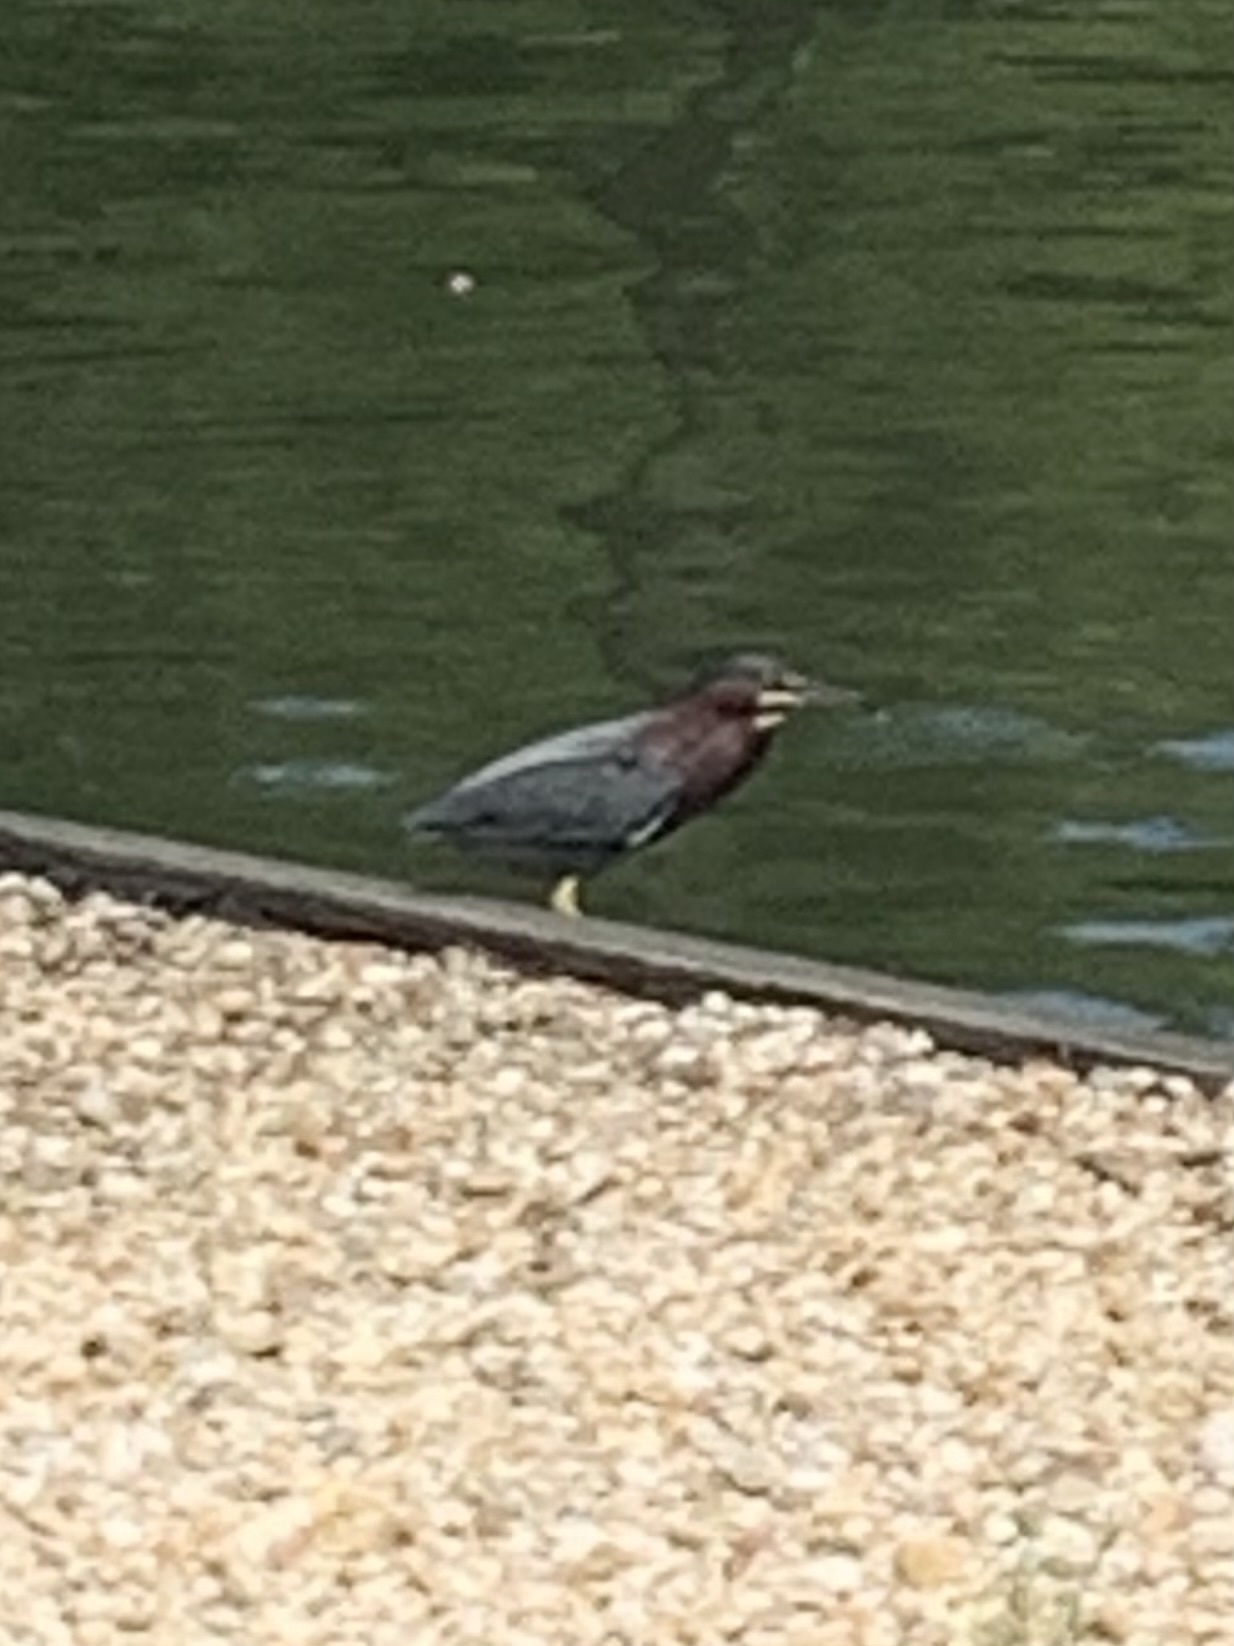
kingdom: Animalia
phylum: Chordata
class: Aves
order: Pelecaniformes
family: Ardeidae
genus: Butorides
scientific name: Butorides virescens
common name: Green heron
